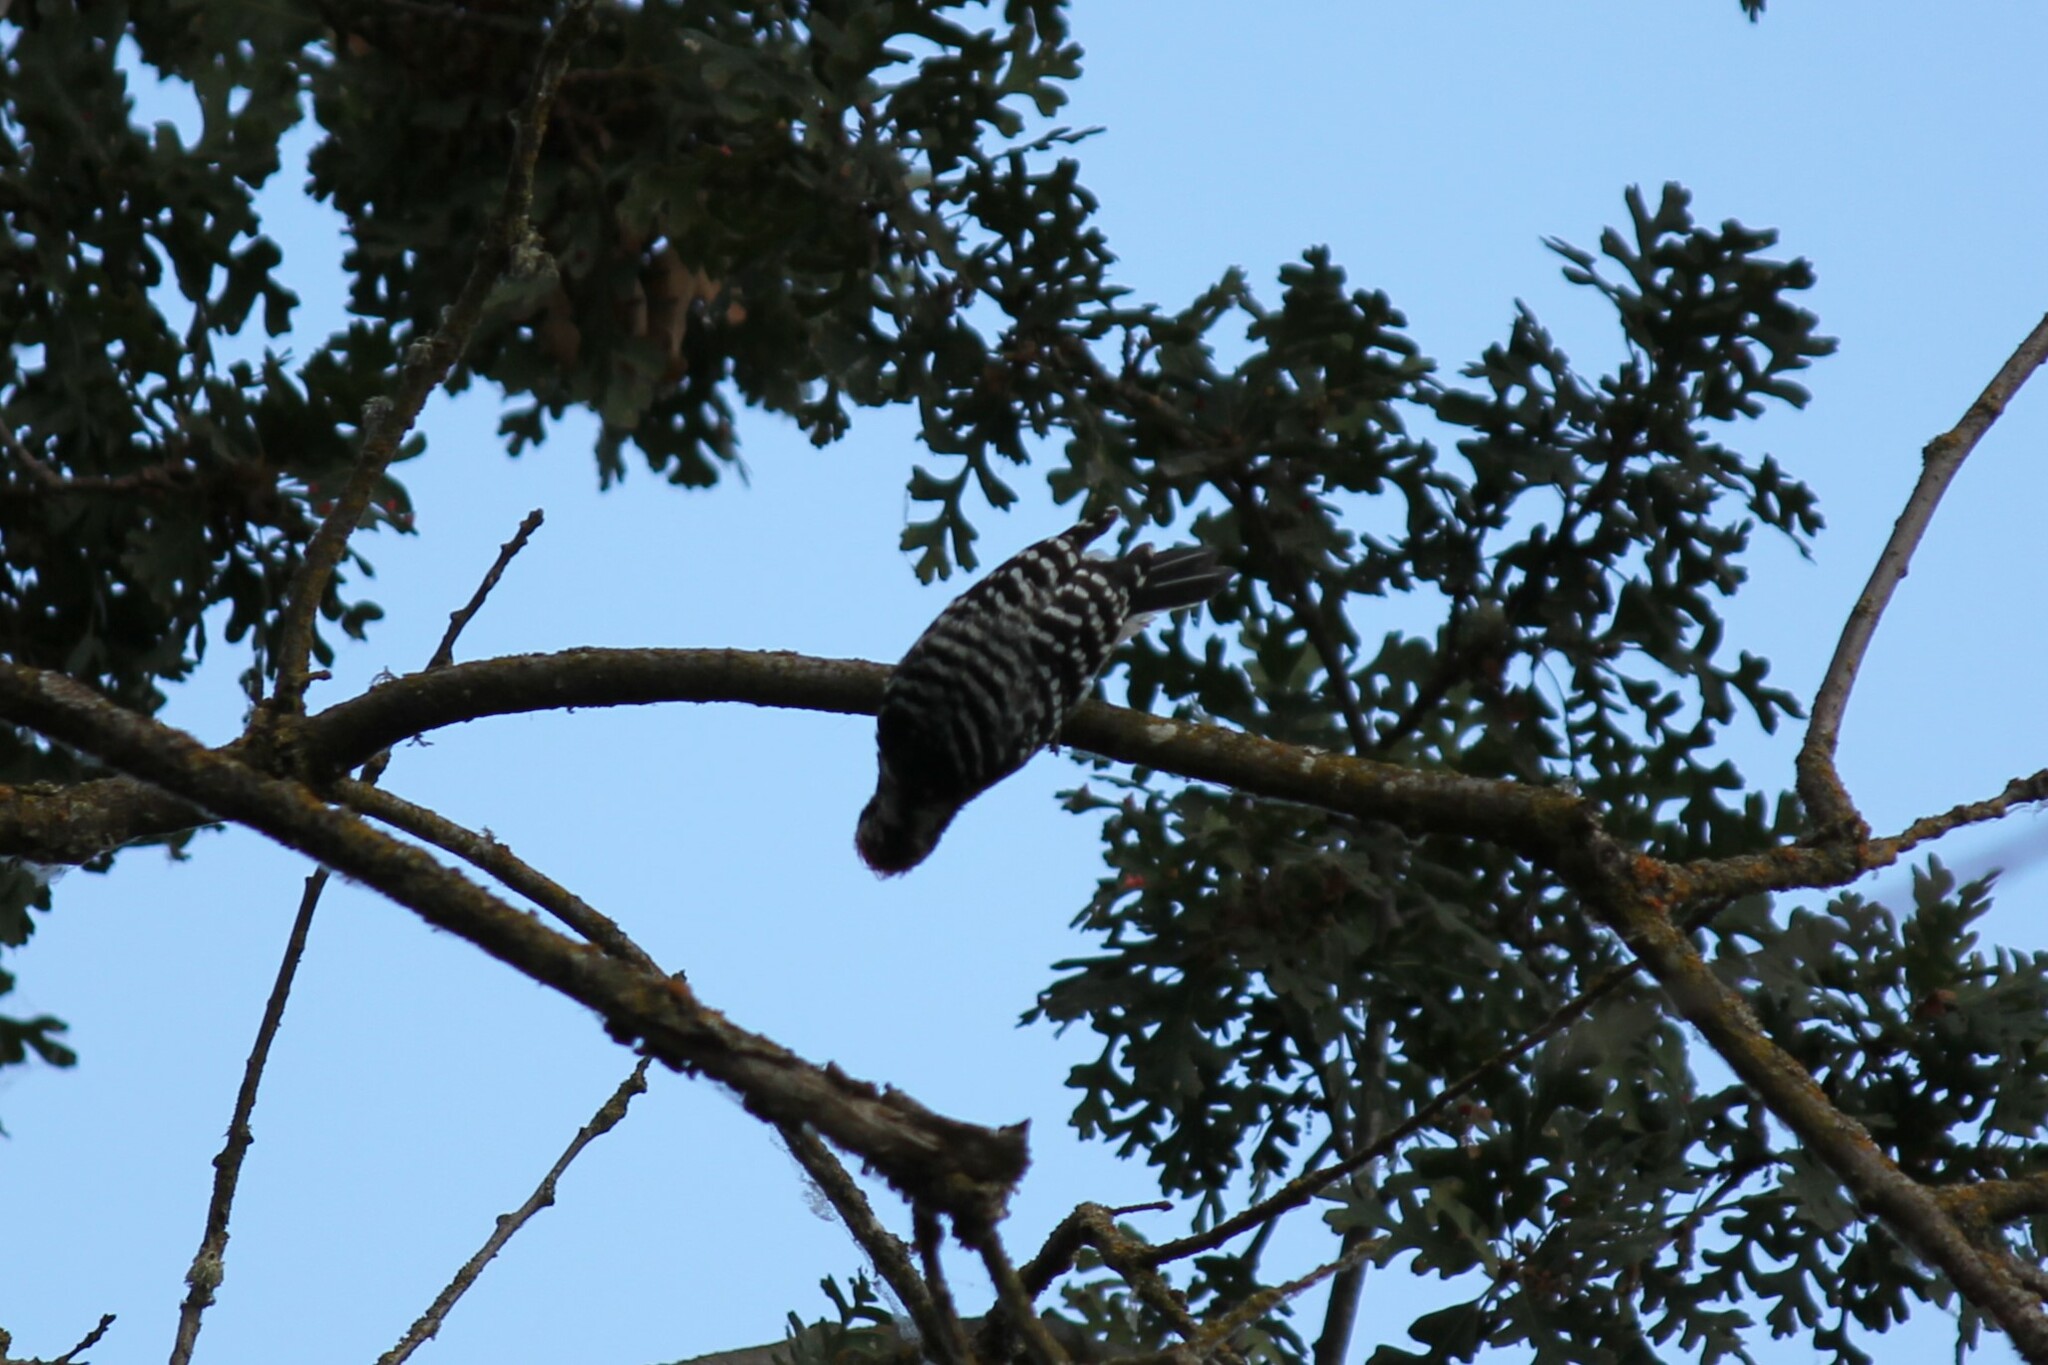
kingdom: Animalia
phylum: Chordata
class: Aves
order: Piciformes
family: Picidae
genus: Dryobates
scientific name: Dryobates nuttallii
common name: Nuttall's woodpecker
